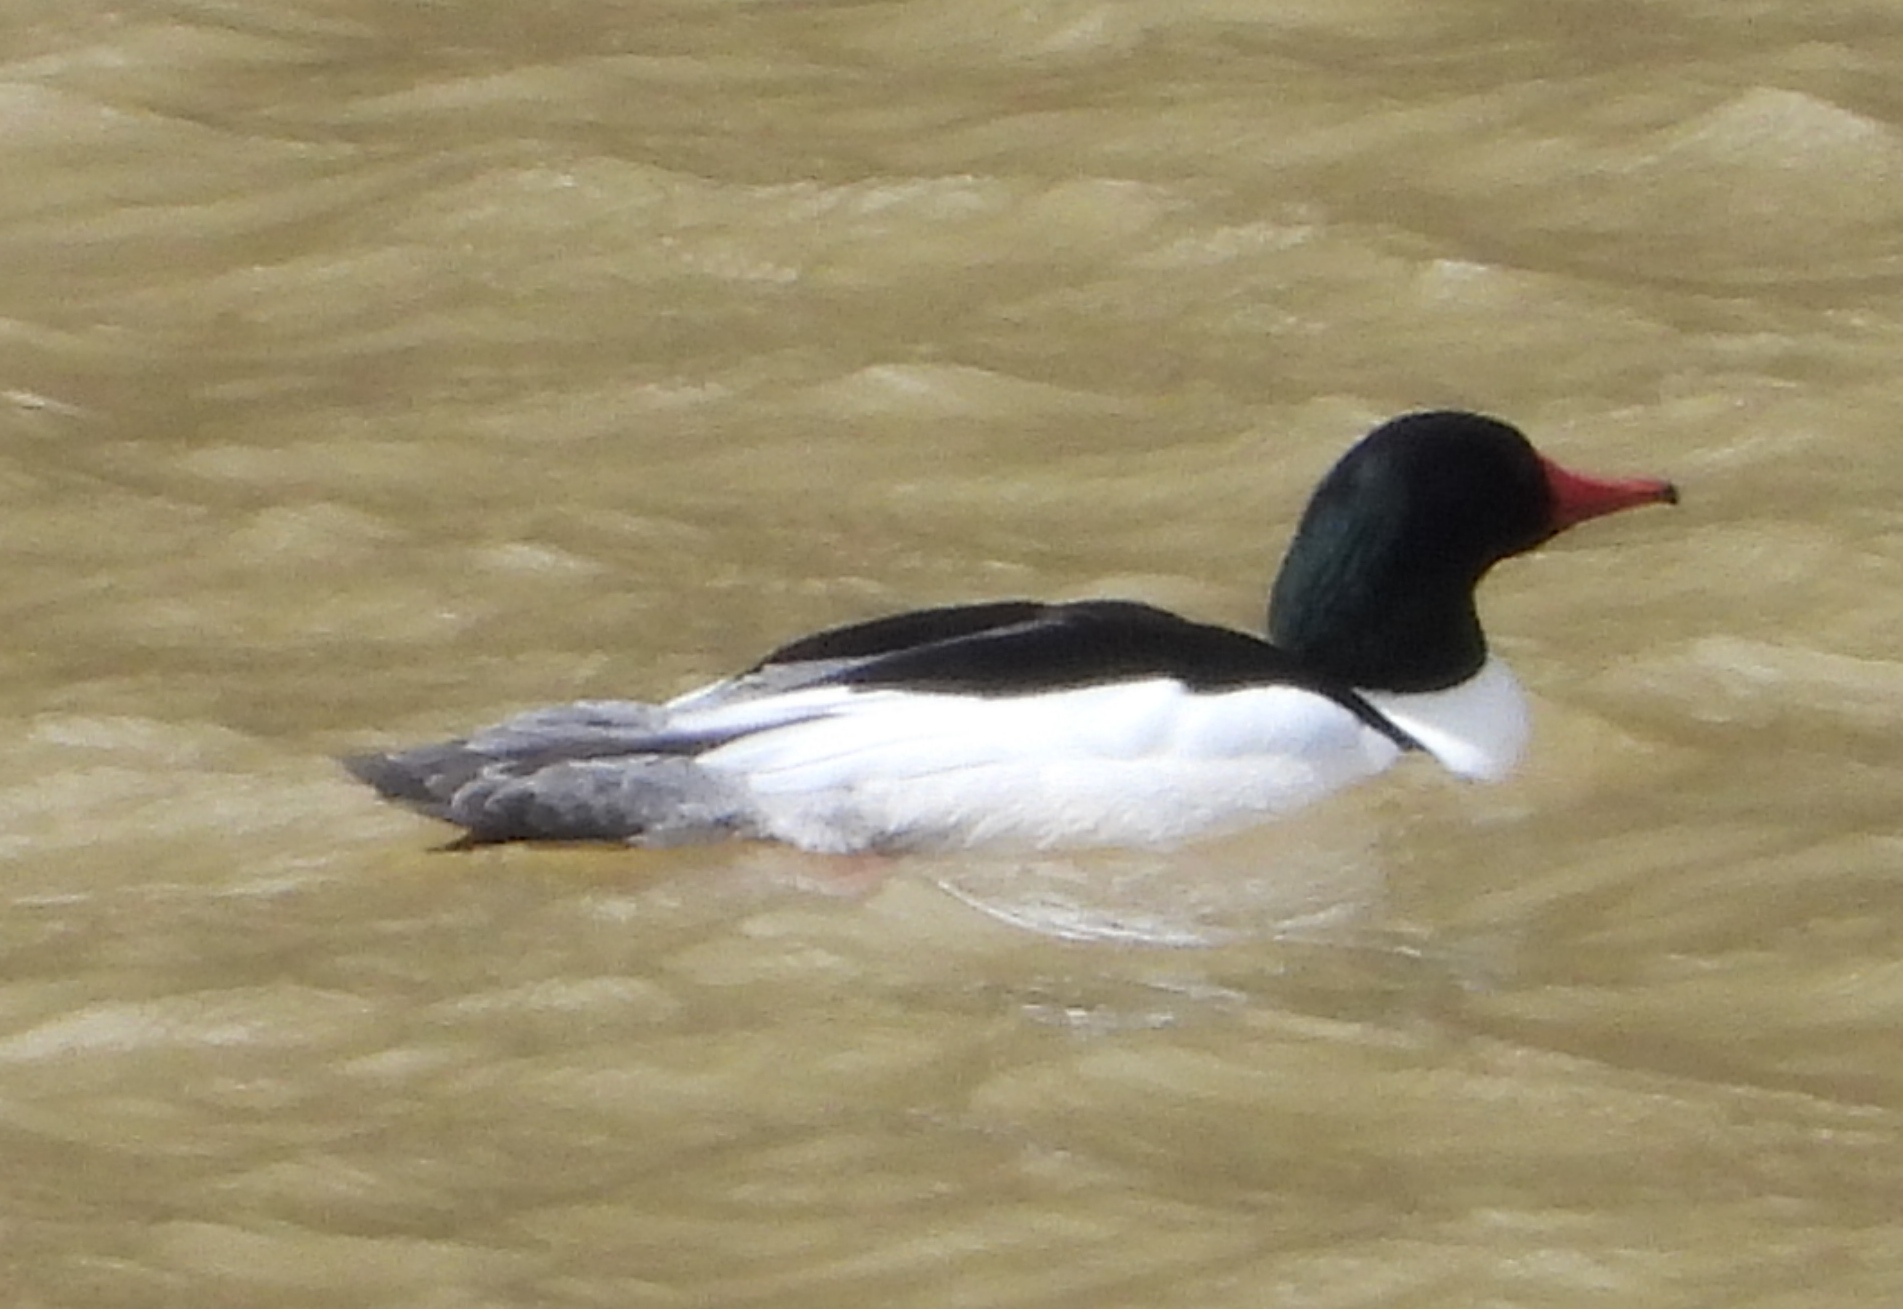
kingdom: Animalia
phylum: Chordata
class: Aves
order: Anseriformes
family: Anatidae
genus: Mergus
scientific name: Mergus merganser
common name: Common merganser
